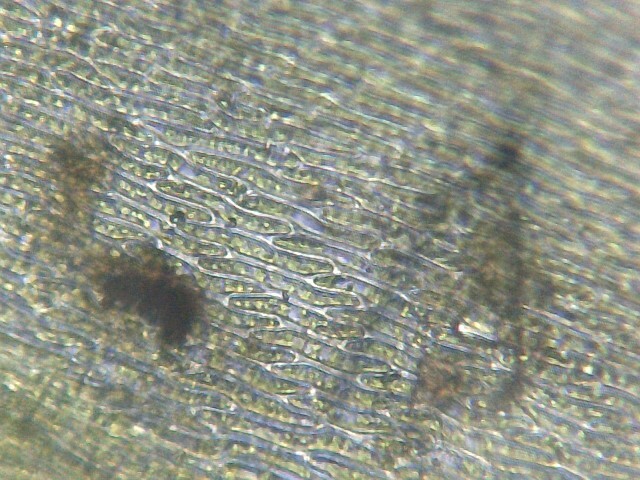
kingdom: Plantae
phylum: Bryophyta
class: Bryopsida
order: Hypnales
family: Brachytheciaceae
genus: Rhynchostegium
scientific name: Rhynchostegium riparioides
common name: Platyhypnidium moss
